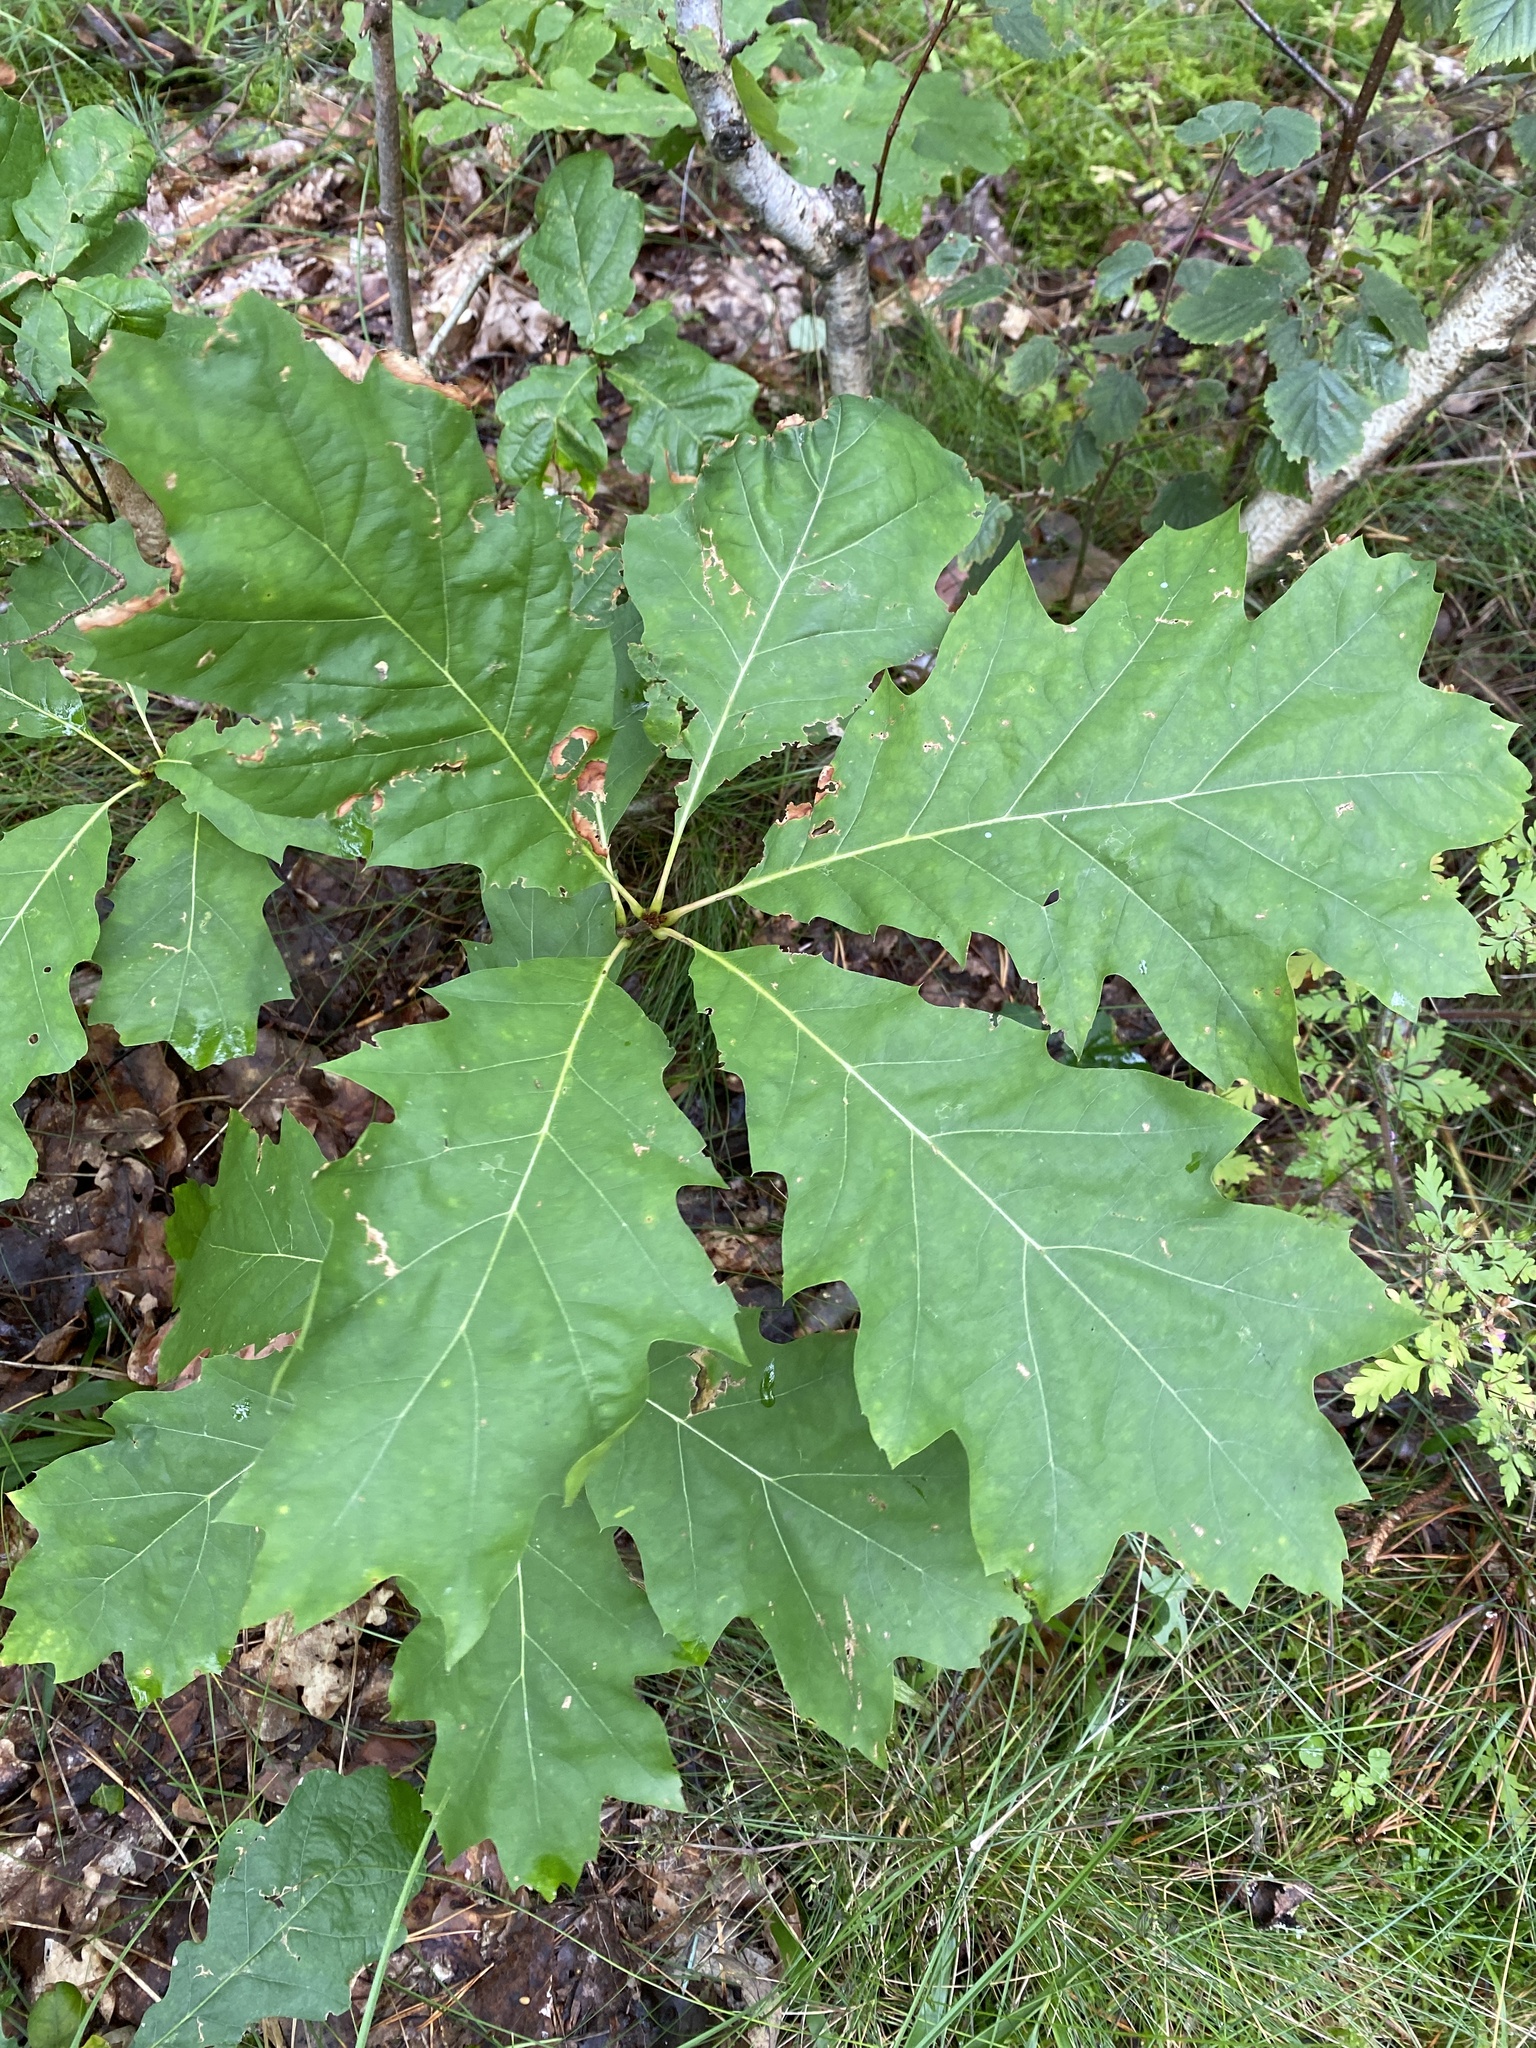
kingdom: Plantae
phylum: Tracheophyta
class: Magnoliopsida
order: Fagales
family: Fagaceae
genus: Quercus
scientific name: Quercus rubra
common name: Red oak
